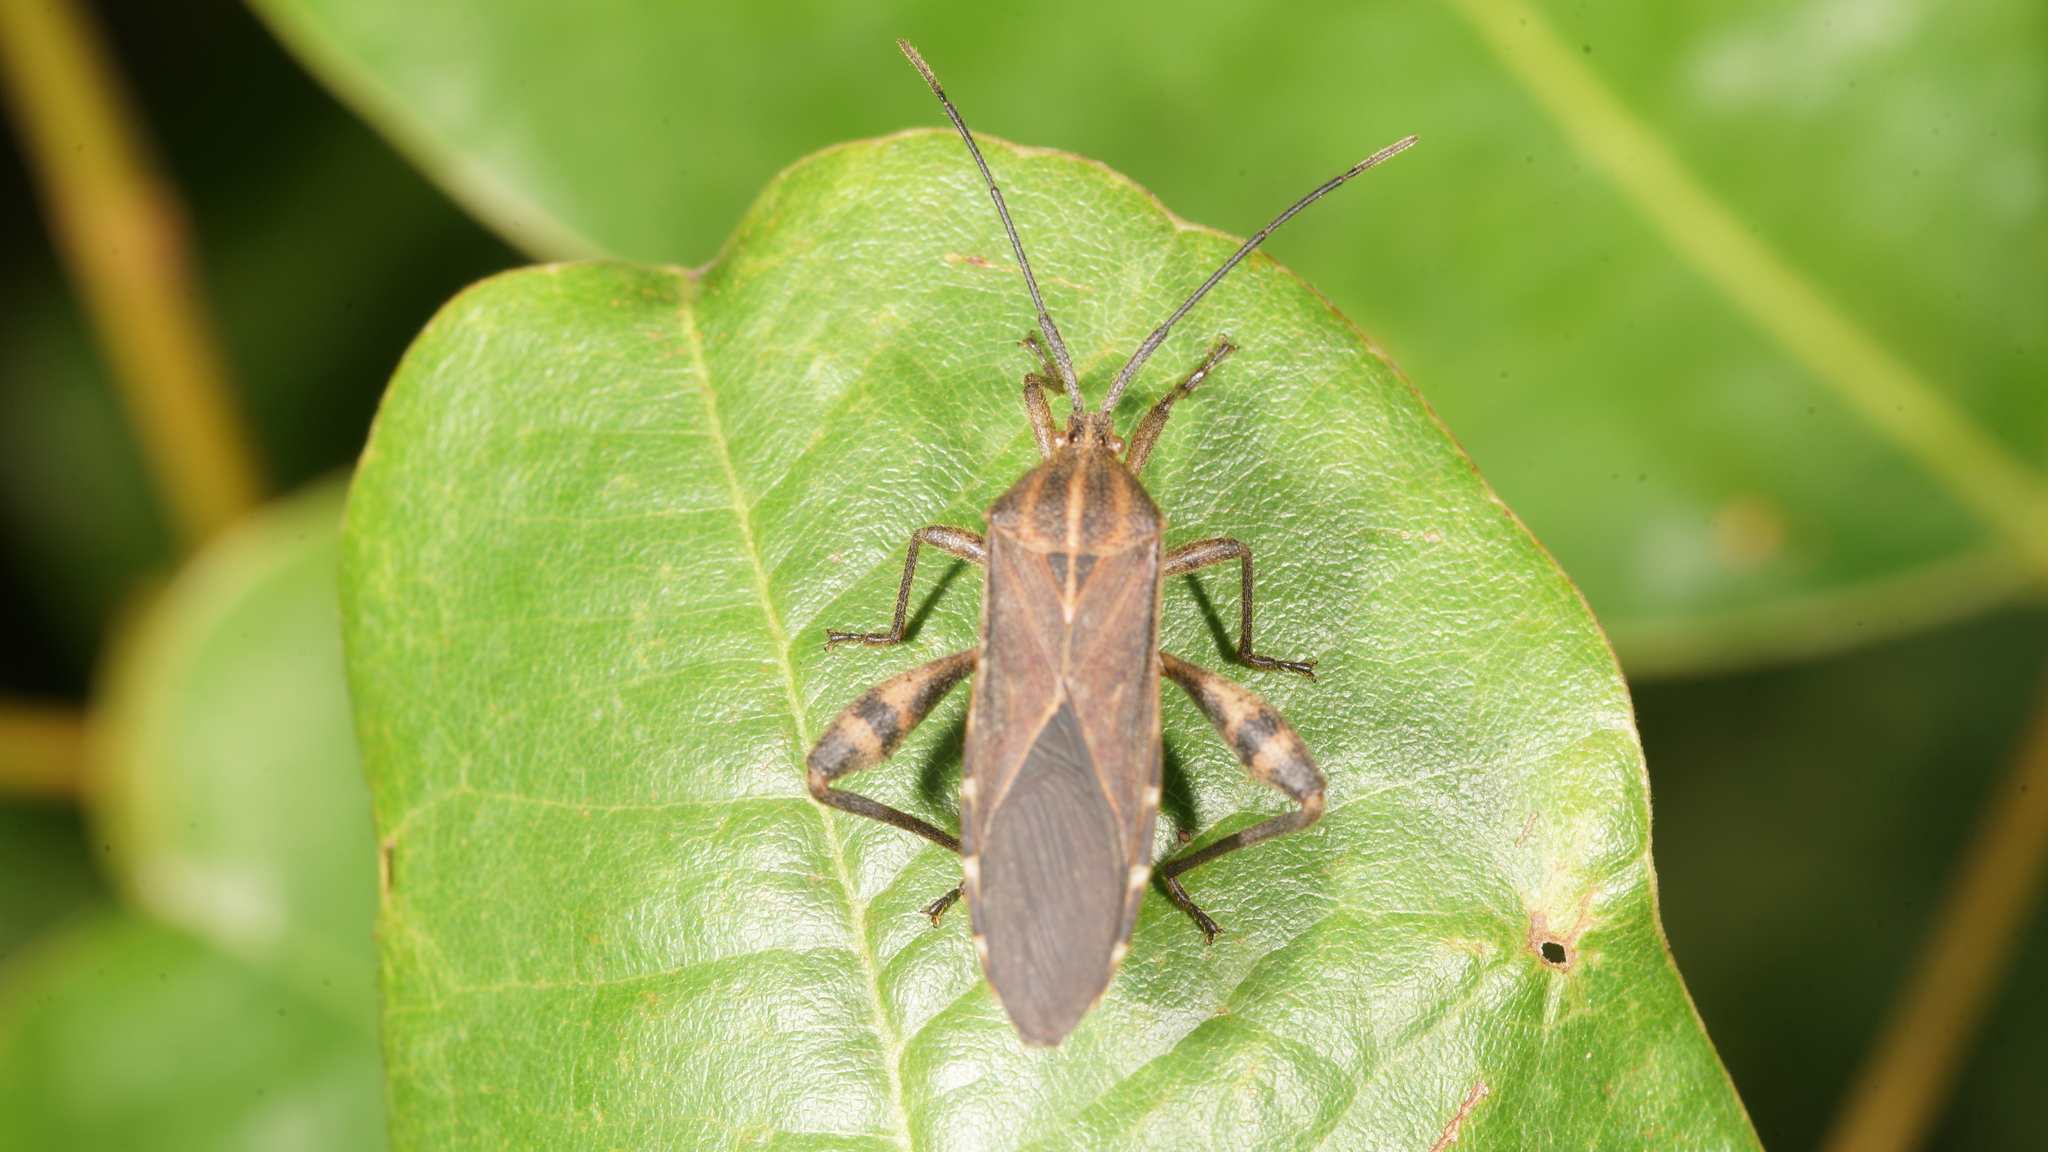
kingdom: Animalia
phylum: Arthropoda
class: Insecta
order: Hemiptera
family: Coreidae
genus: Physomerus
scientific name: Physomerus grossipes
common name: Squash bug
